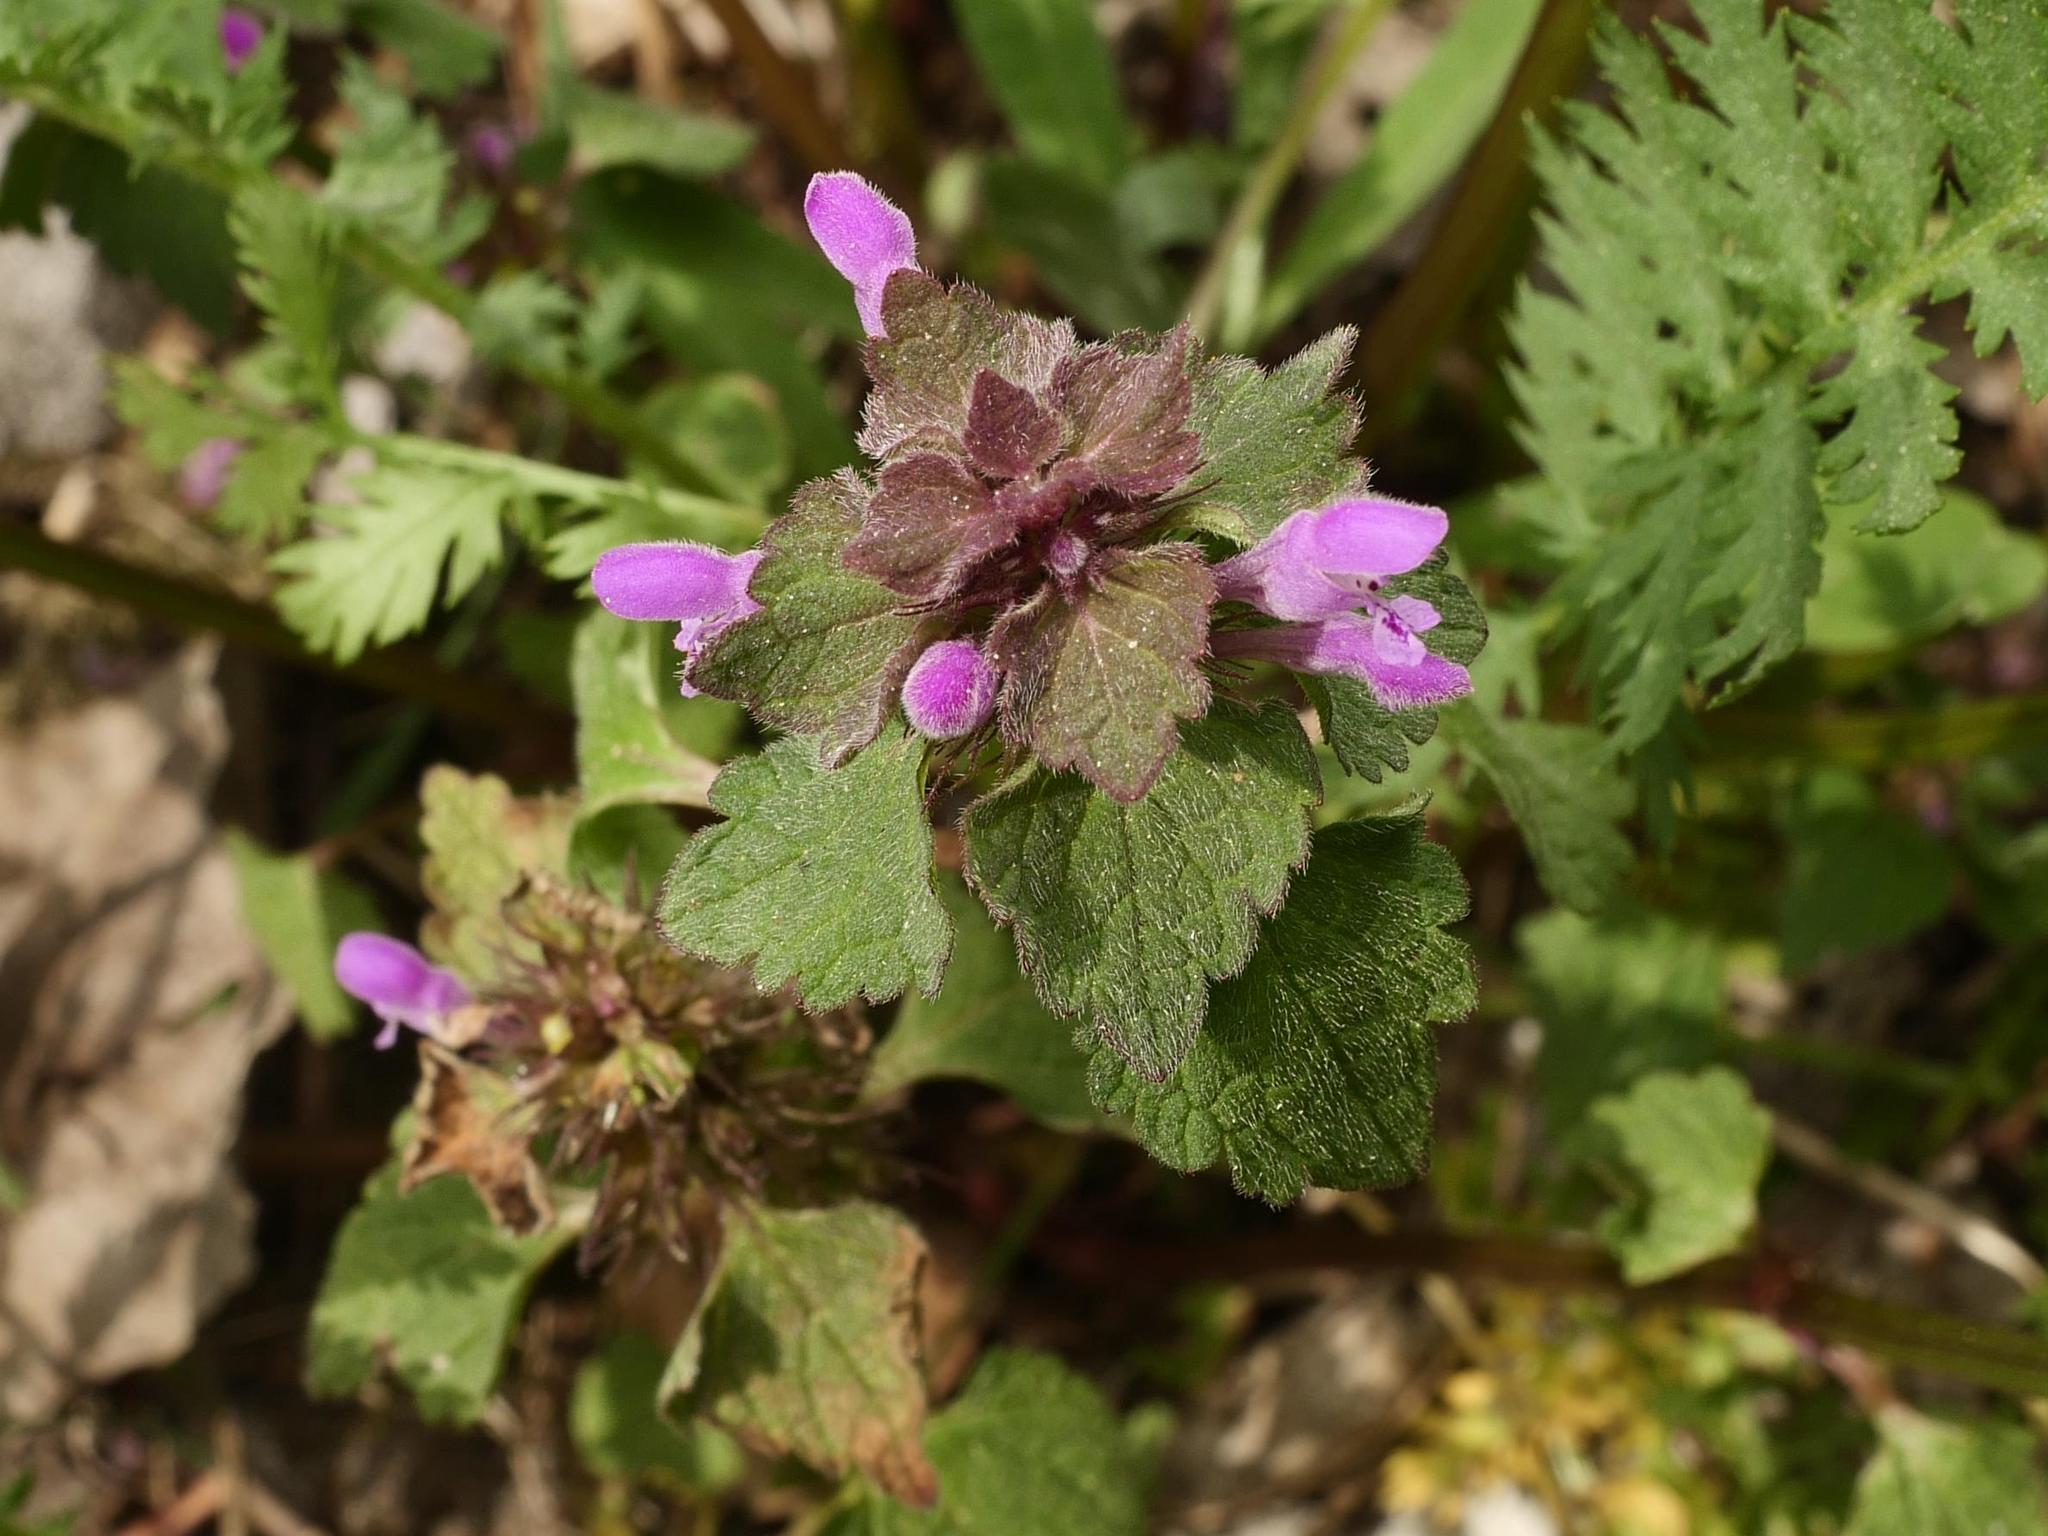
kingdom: Plantae
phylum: Tracheophyta
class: Magnoliopsida
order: Lamiales
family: Lamiaceae
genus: Lamium
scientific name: Lamium purpureum
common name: Red dead-nettle
